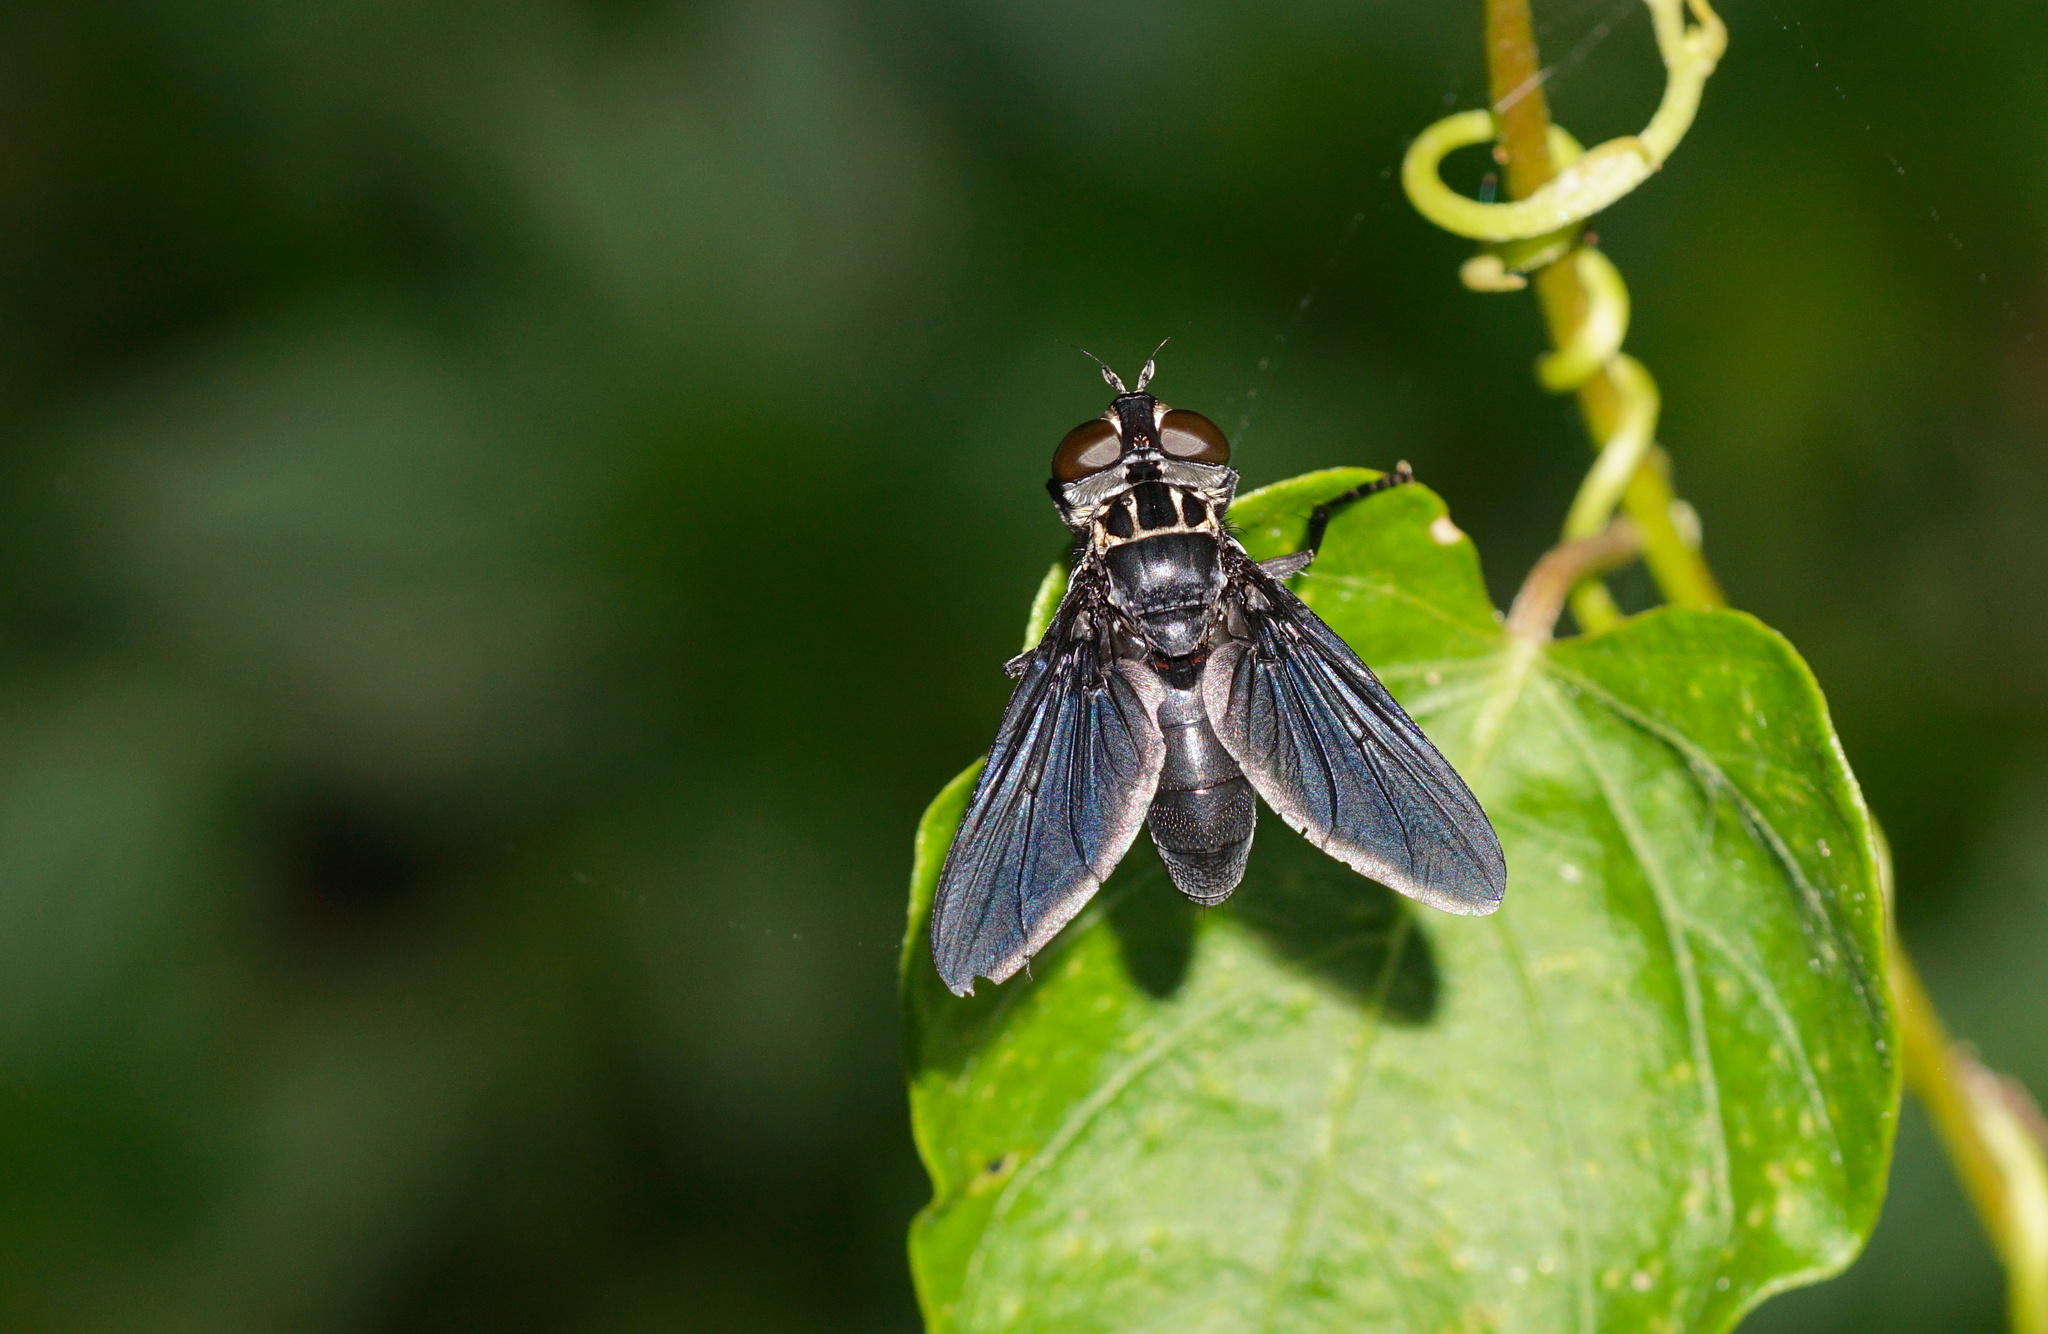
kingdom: Animalia
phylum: Arthropoda
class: Insecta
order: Diptera
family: Tachinidae
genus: Trichopoda
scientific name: Trichopoda lanipes
